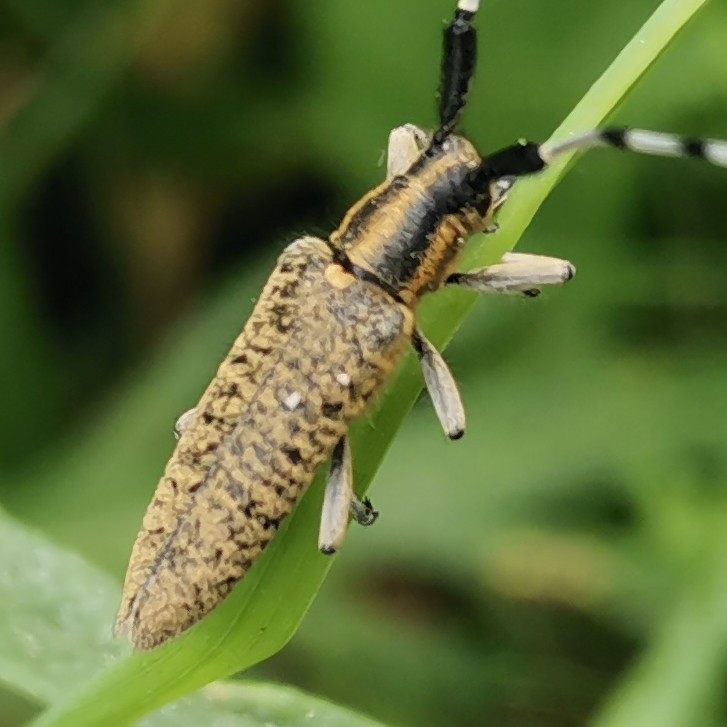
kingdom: Animalia
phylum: Arthropoda
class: Insecta
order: Coleoptera
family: Cerambycidae
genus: Agapanthia
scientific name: Agapanthia villosoviridescens
